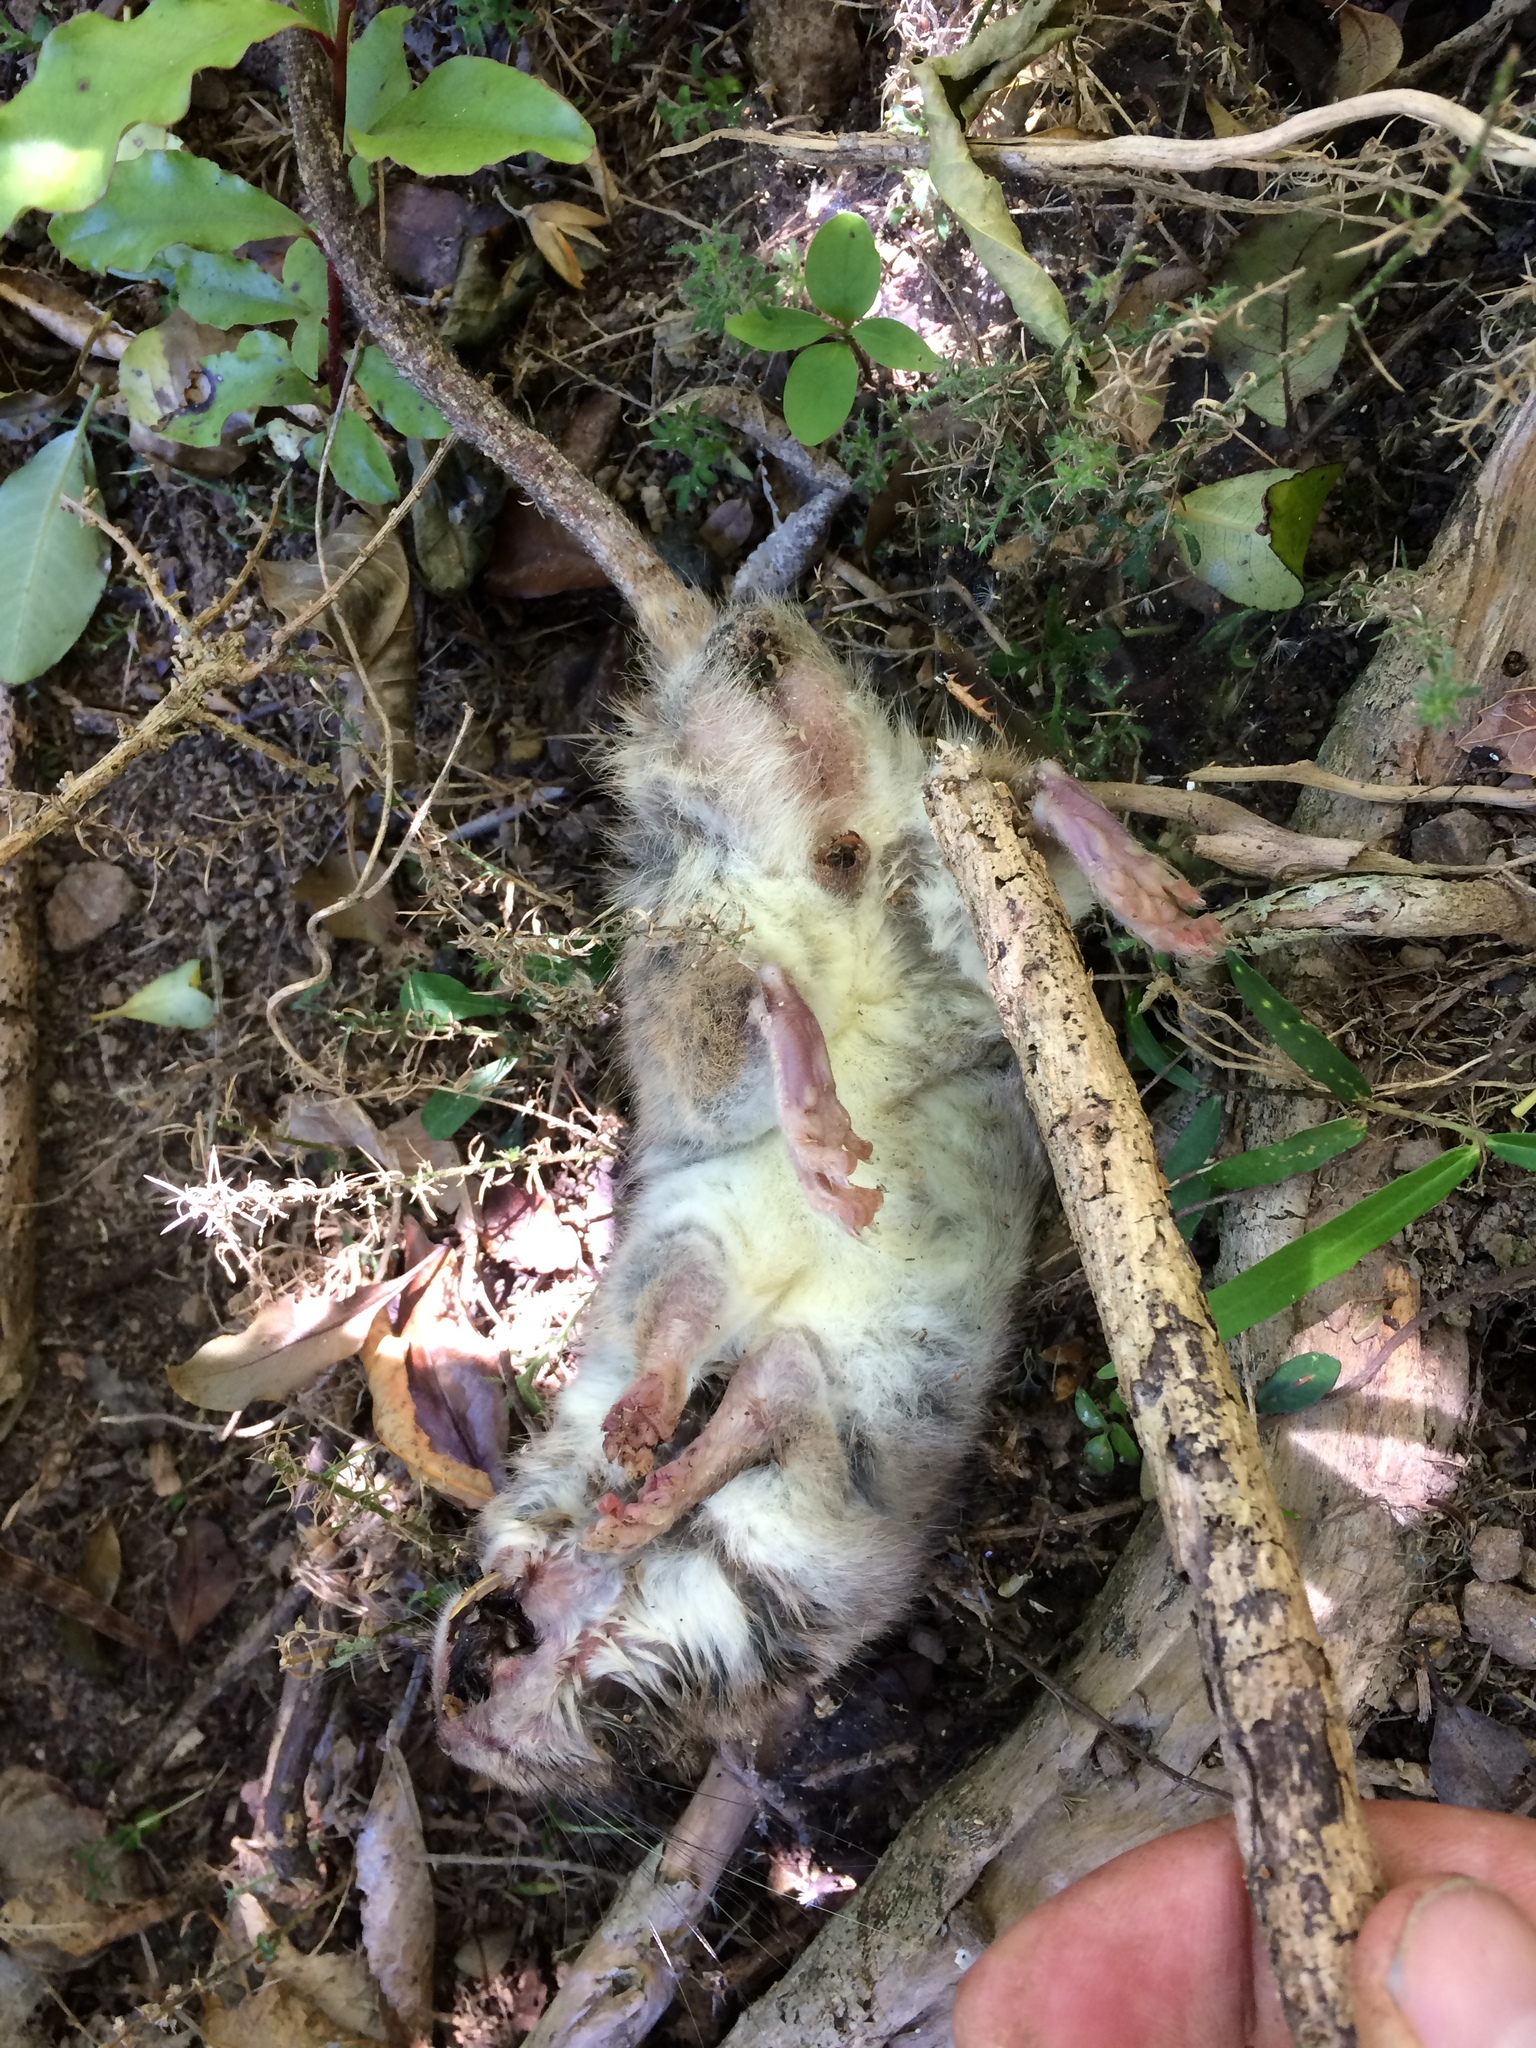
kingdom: Animalia
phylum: Chordata
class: Mammalia
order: Rodentia
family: Muridae
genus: Rattus
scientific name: Rattus rattus
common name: Black rat
